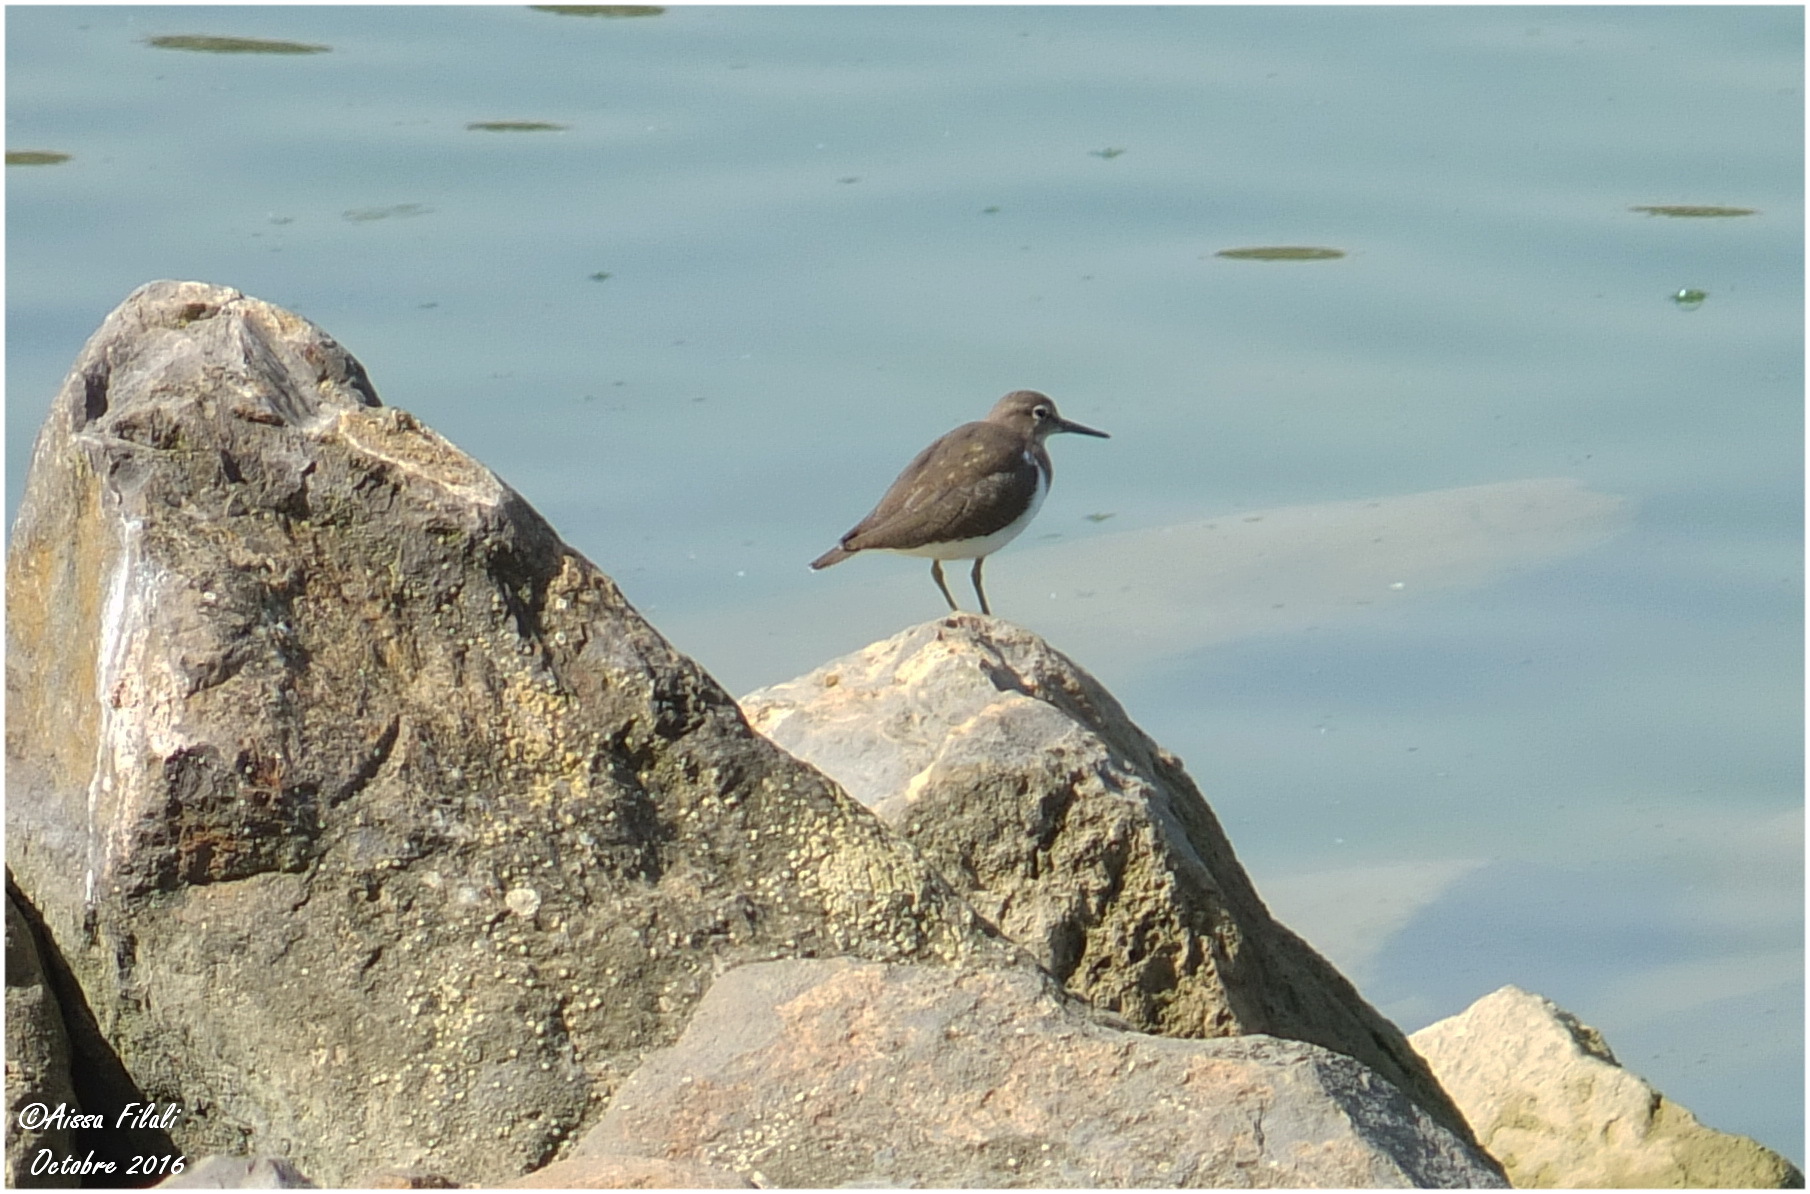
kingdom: Animalia
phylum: Chordata
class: Aves
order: Charadriiformes
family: Scolopacidae
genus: Actitis
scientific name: Actitis hypoleucos
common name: Common sandpiper
